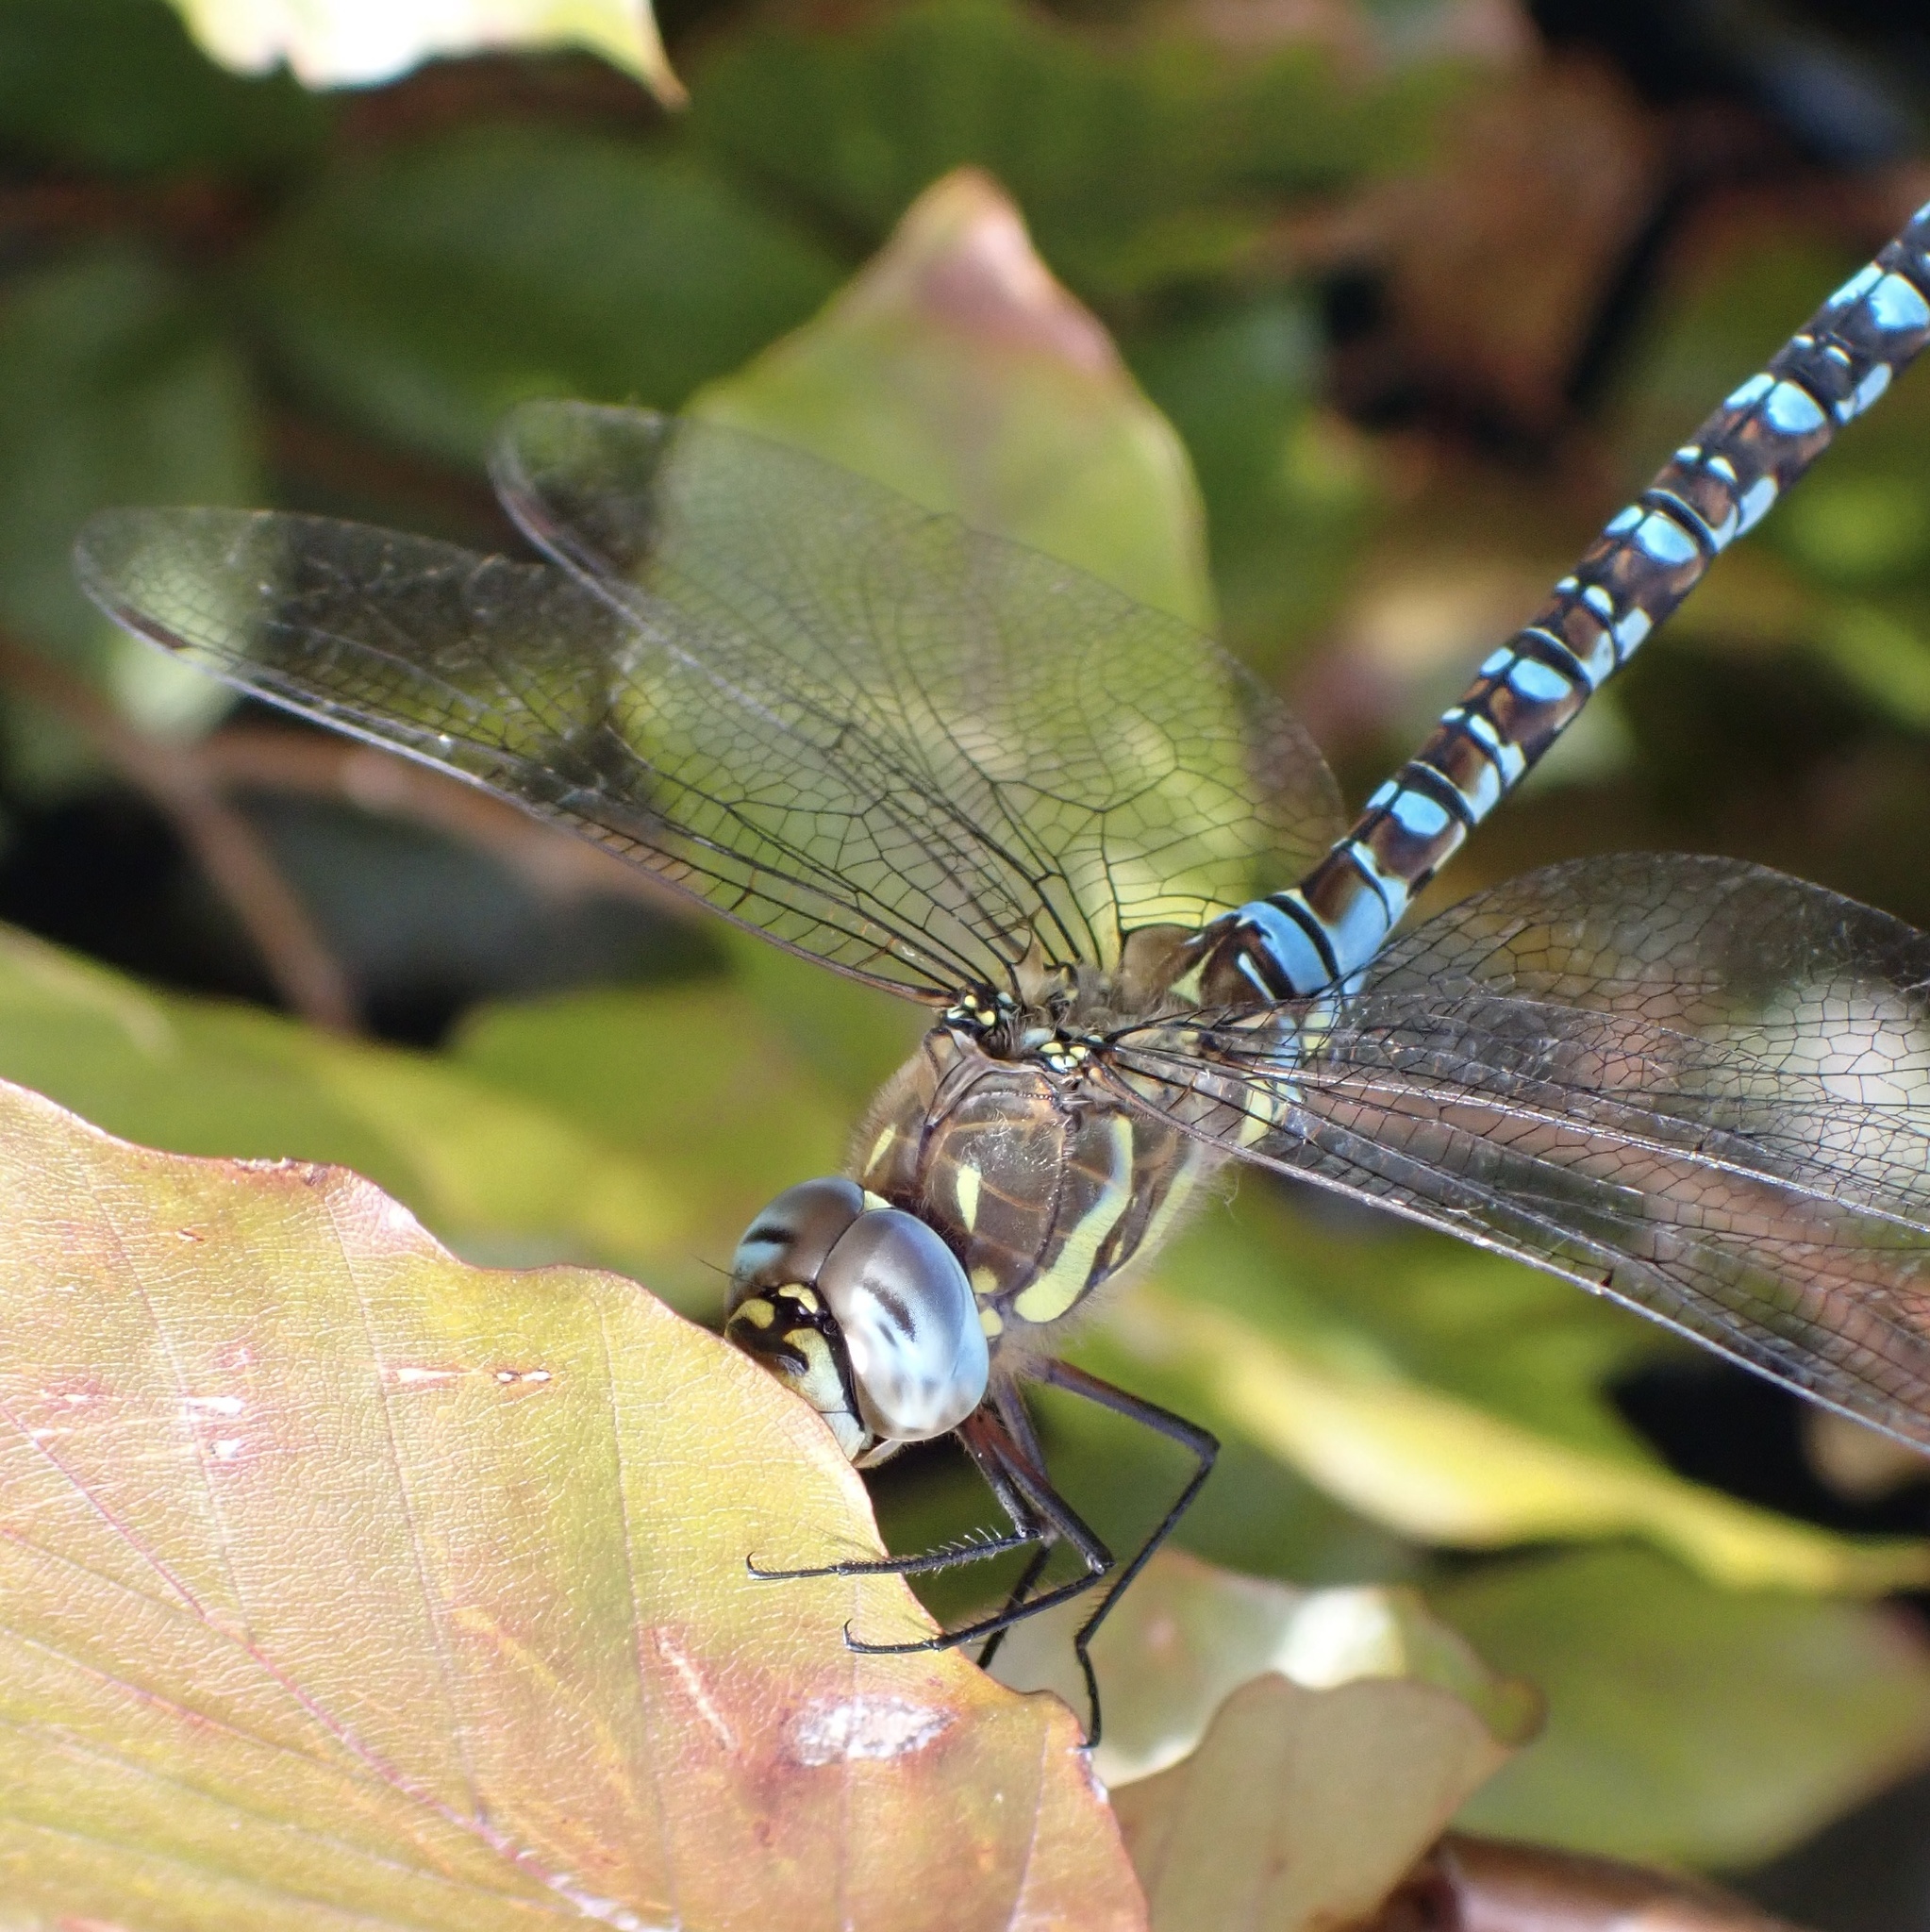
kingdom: Animalia
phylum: Arthropoda
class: Insecta
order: Odonata
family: Aeshnidae
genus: Aeshna
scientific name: Aeshna mixta
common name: Migrant hawker
